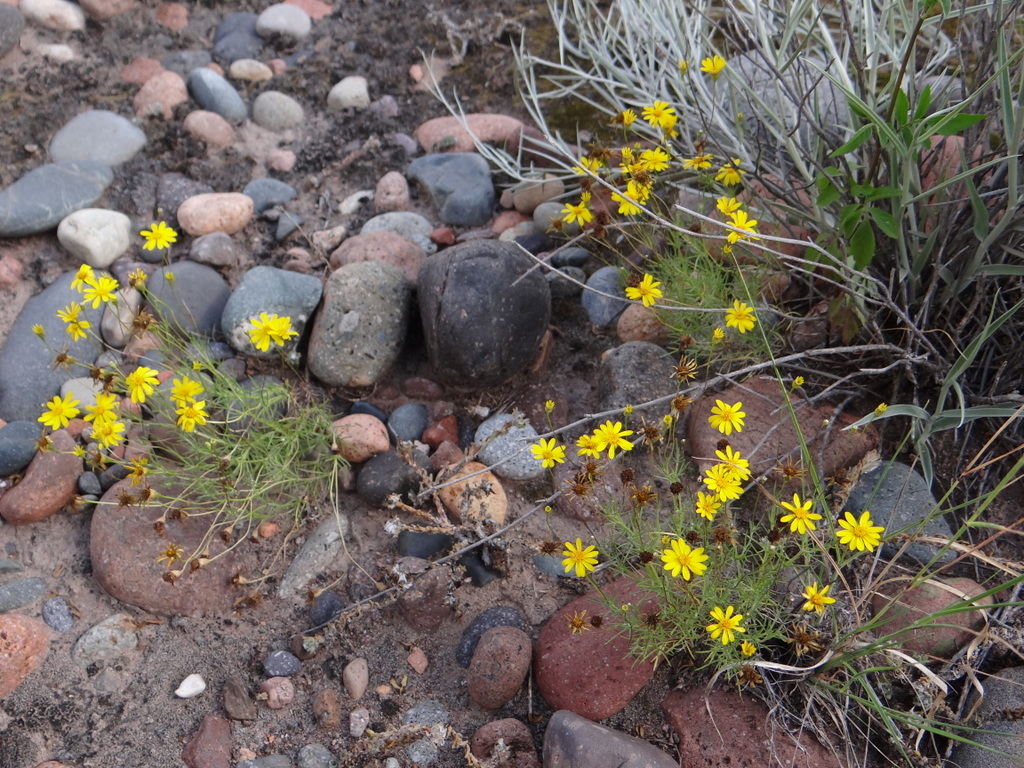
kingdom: Plantae
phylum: Tracheophyta
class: Magnoliopsida
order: Asterales
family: Asteraceae
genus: Thymophylla
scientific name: Thymophylla pentachaeta
